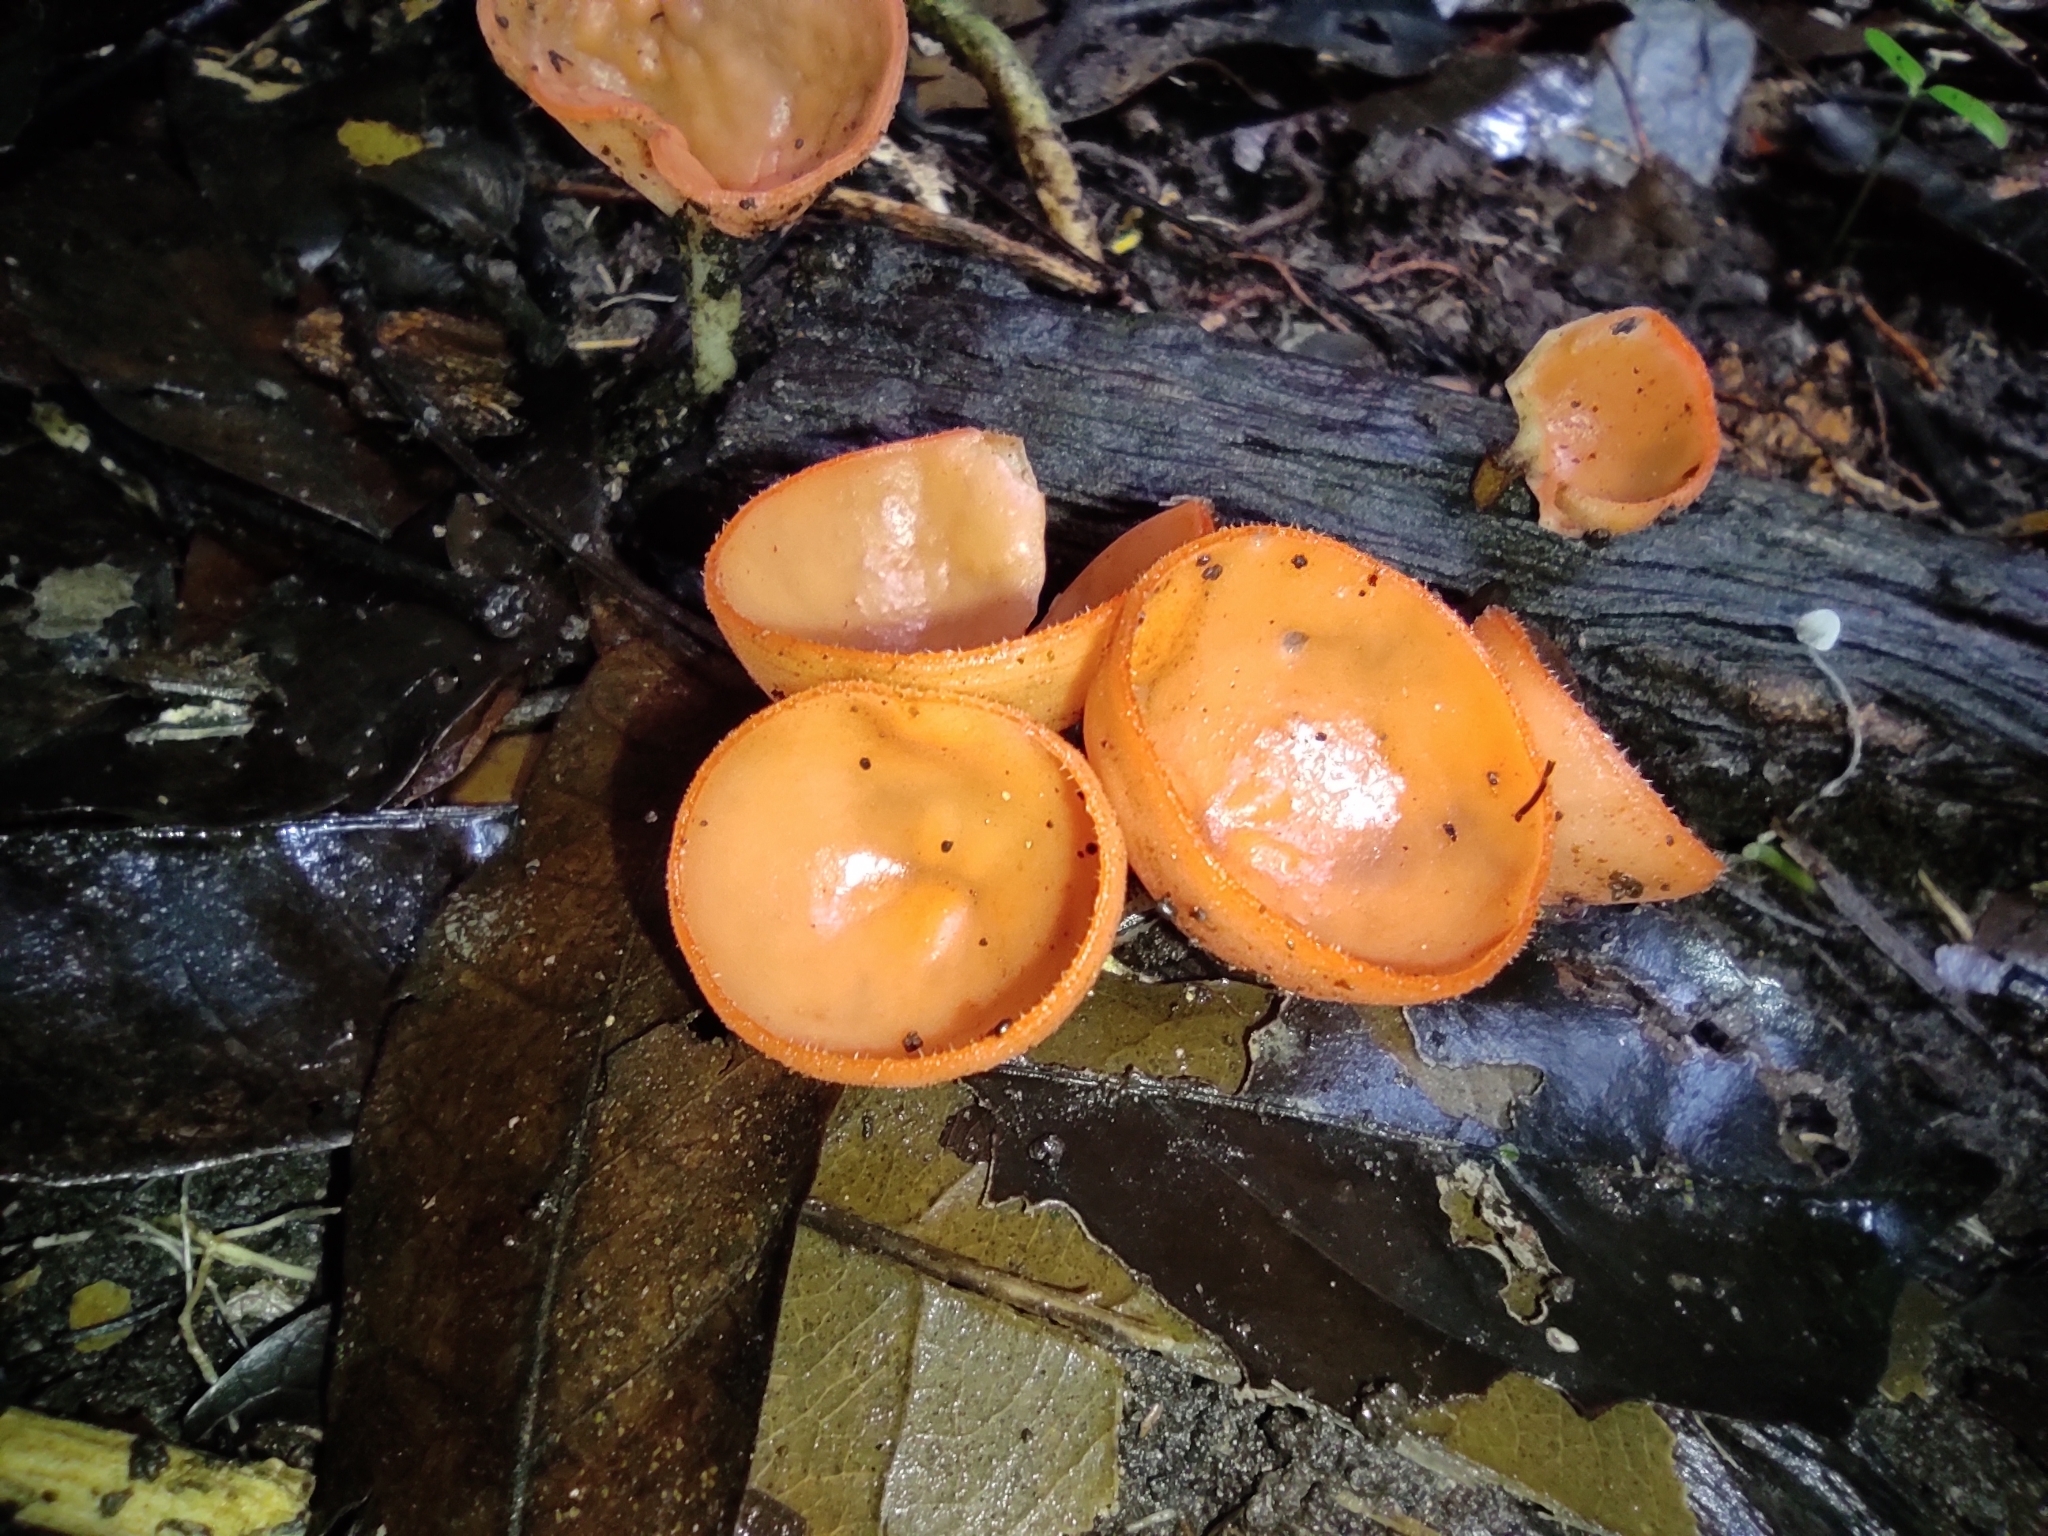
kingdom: Fungi
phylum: Ascomycota
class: Pezizomycetes
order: Pezizales
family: Sarcoscyphaceae
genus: Cookeina
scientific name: Cookeina speciosa
